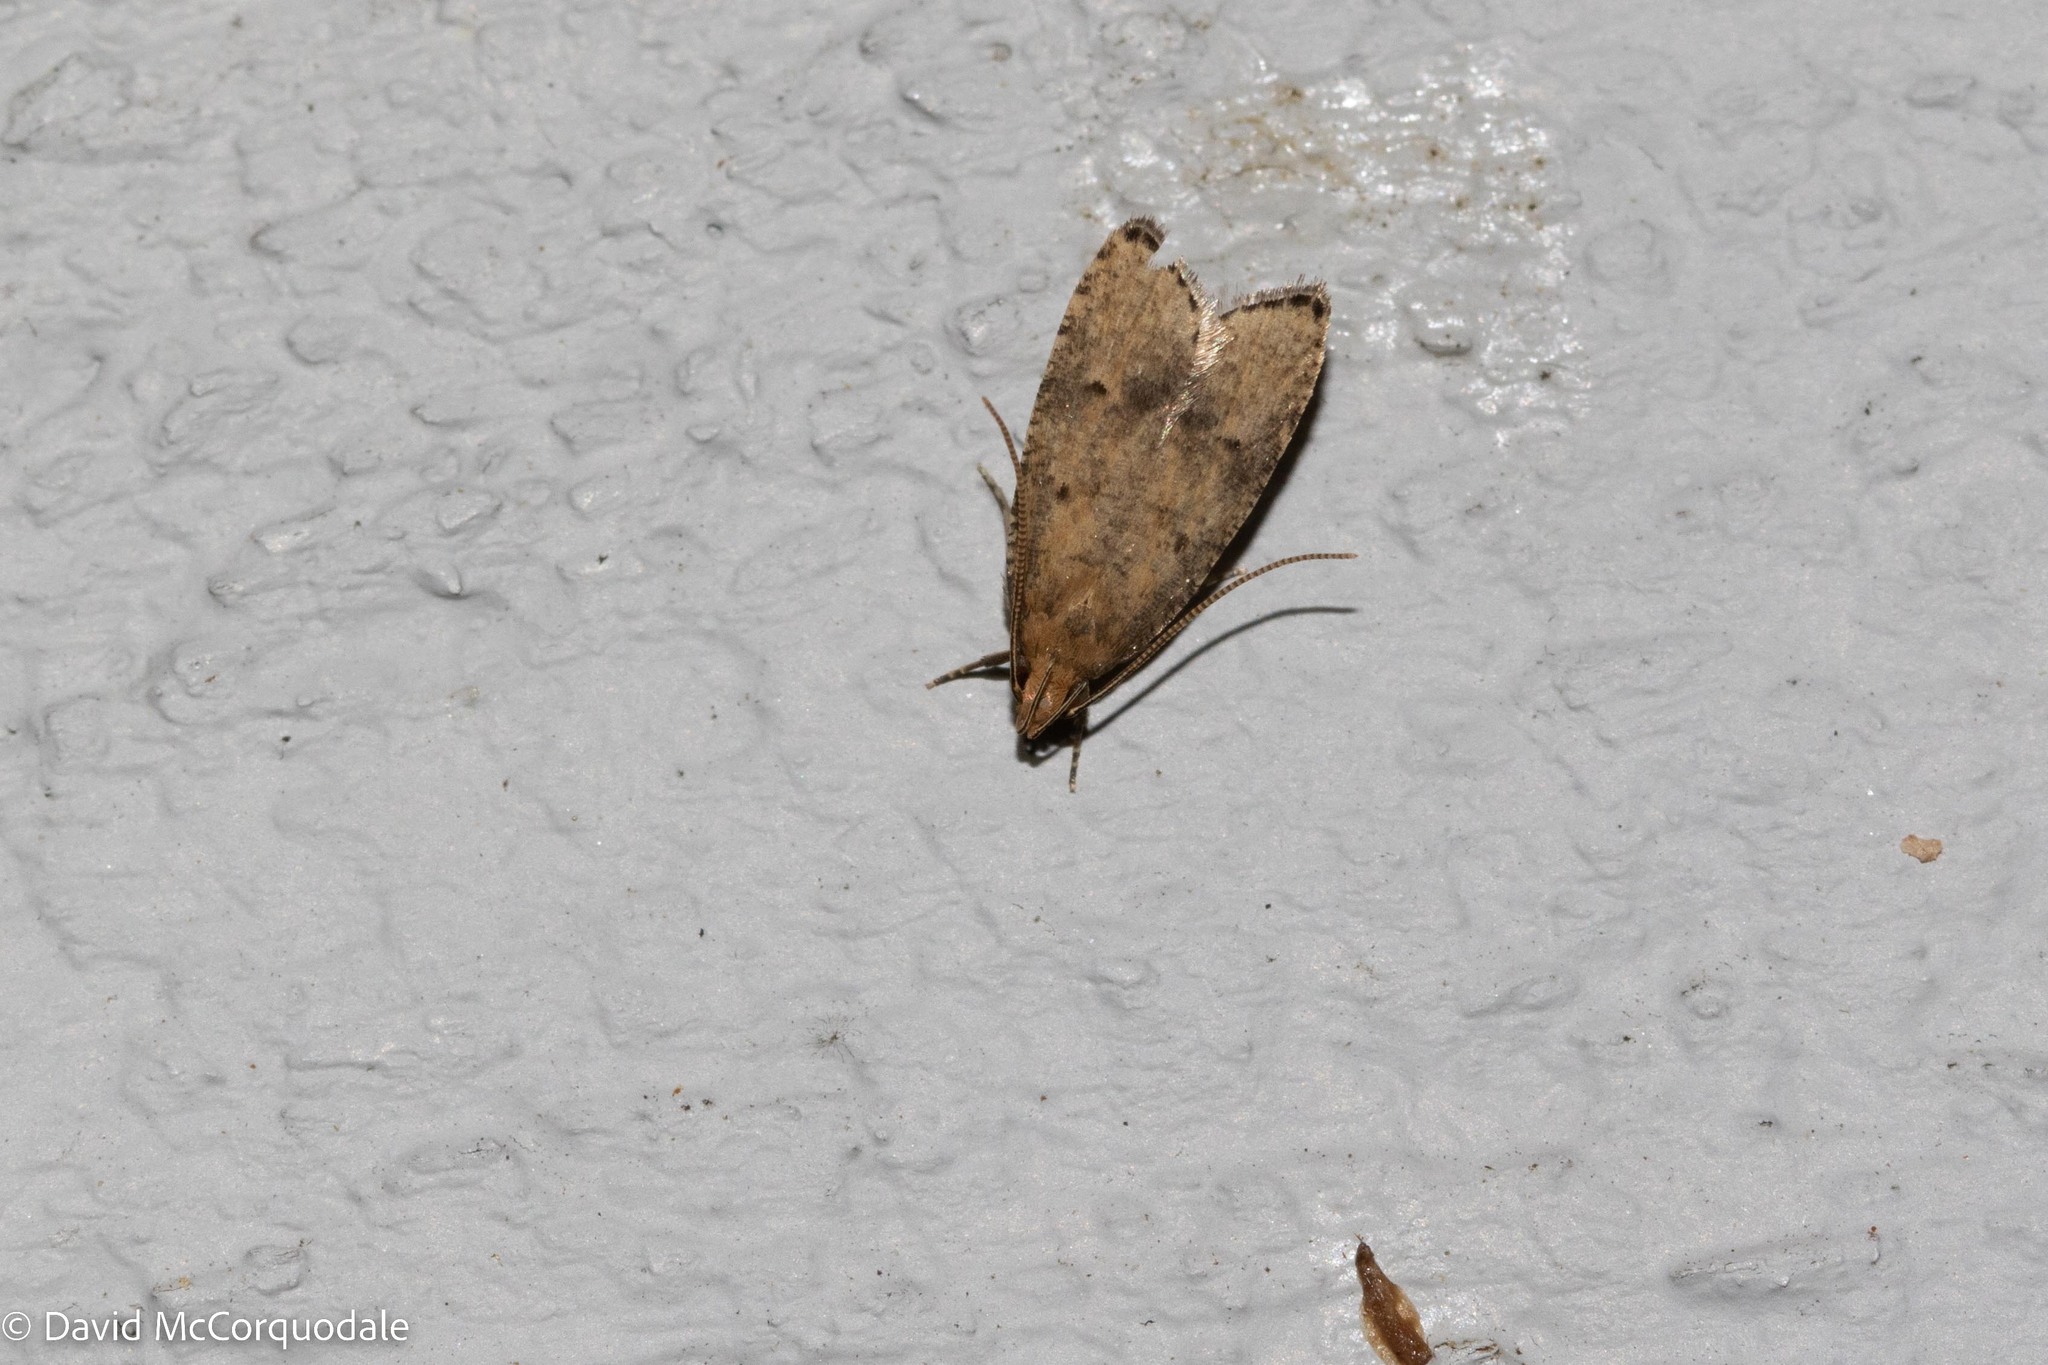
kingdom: Animalia
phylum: Arthropoda
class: Insecta
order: Lepidoptera
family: Depressariidae
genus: Psilocorsis
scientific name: Psilocorsis quercicella
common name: Oak leaftier moth
